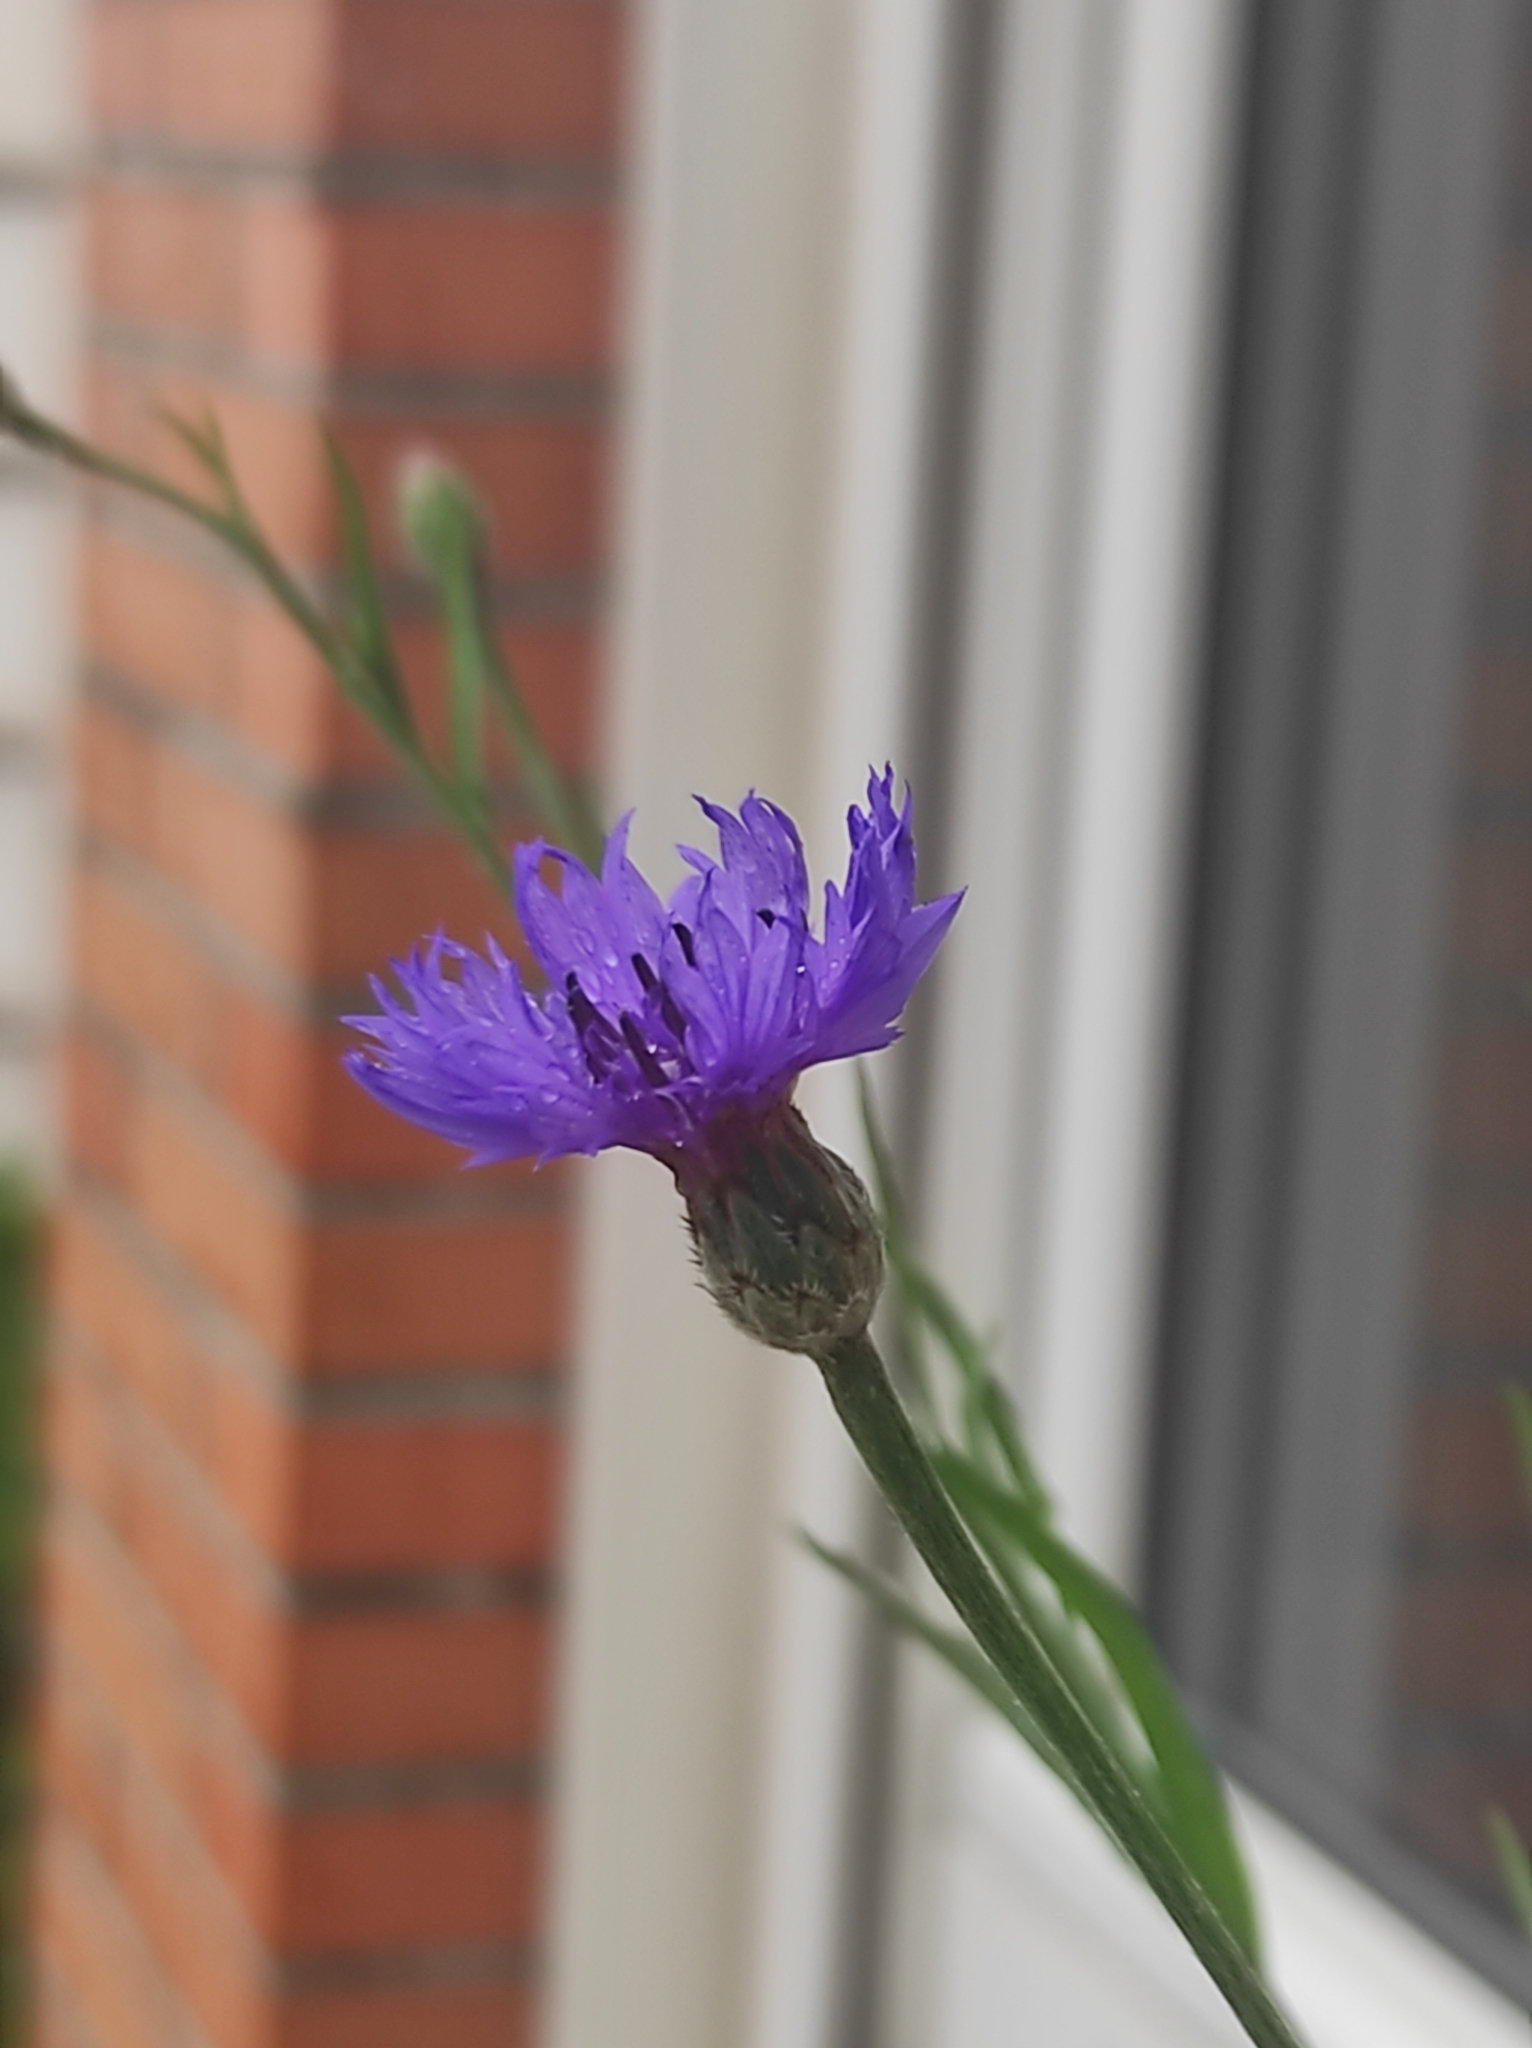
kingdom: Plantae
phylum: Tracheophyta
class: Magnoliopsida
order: Asterales
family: Asteraceae
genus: Centaurea
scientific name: Centaurea cyanus
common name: Cornflower
